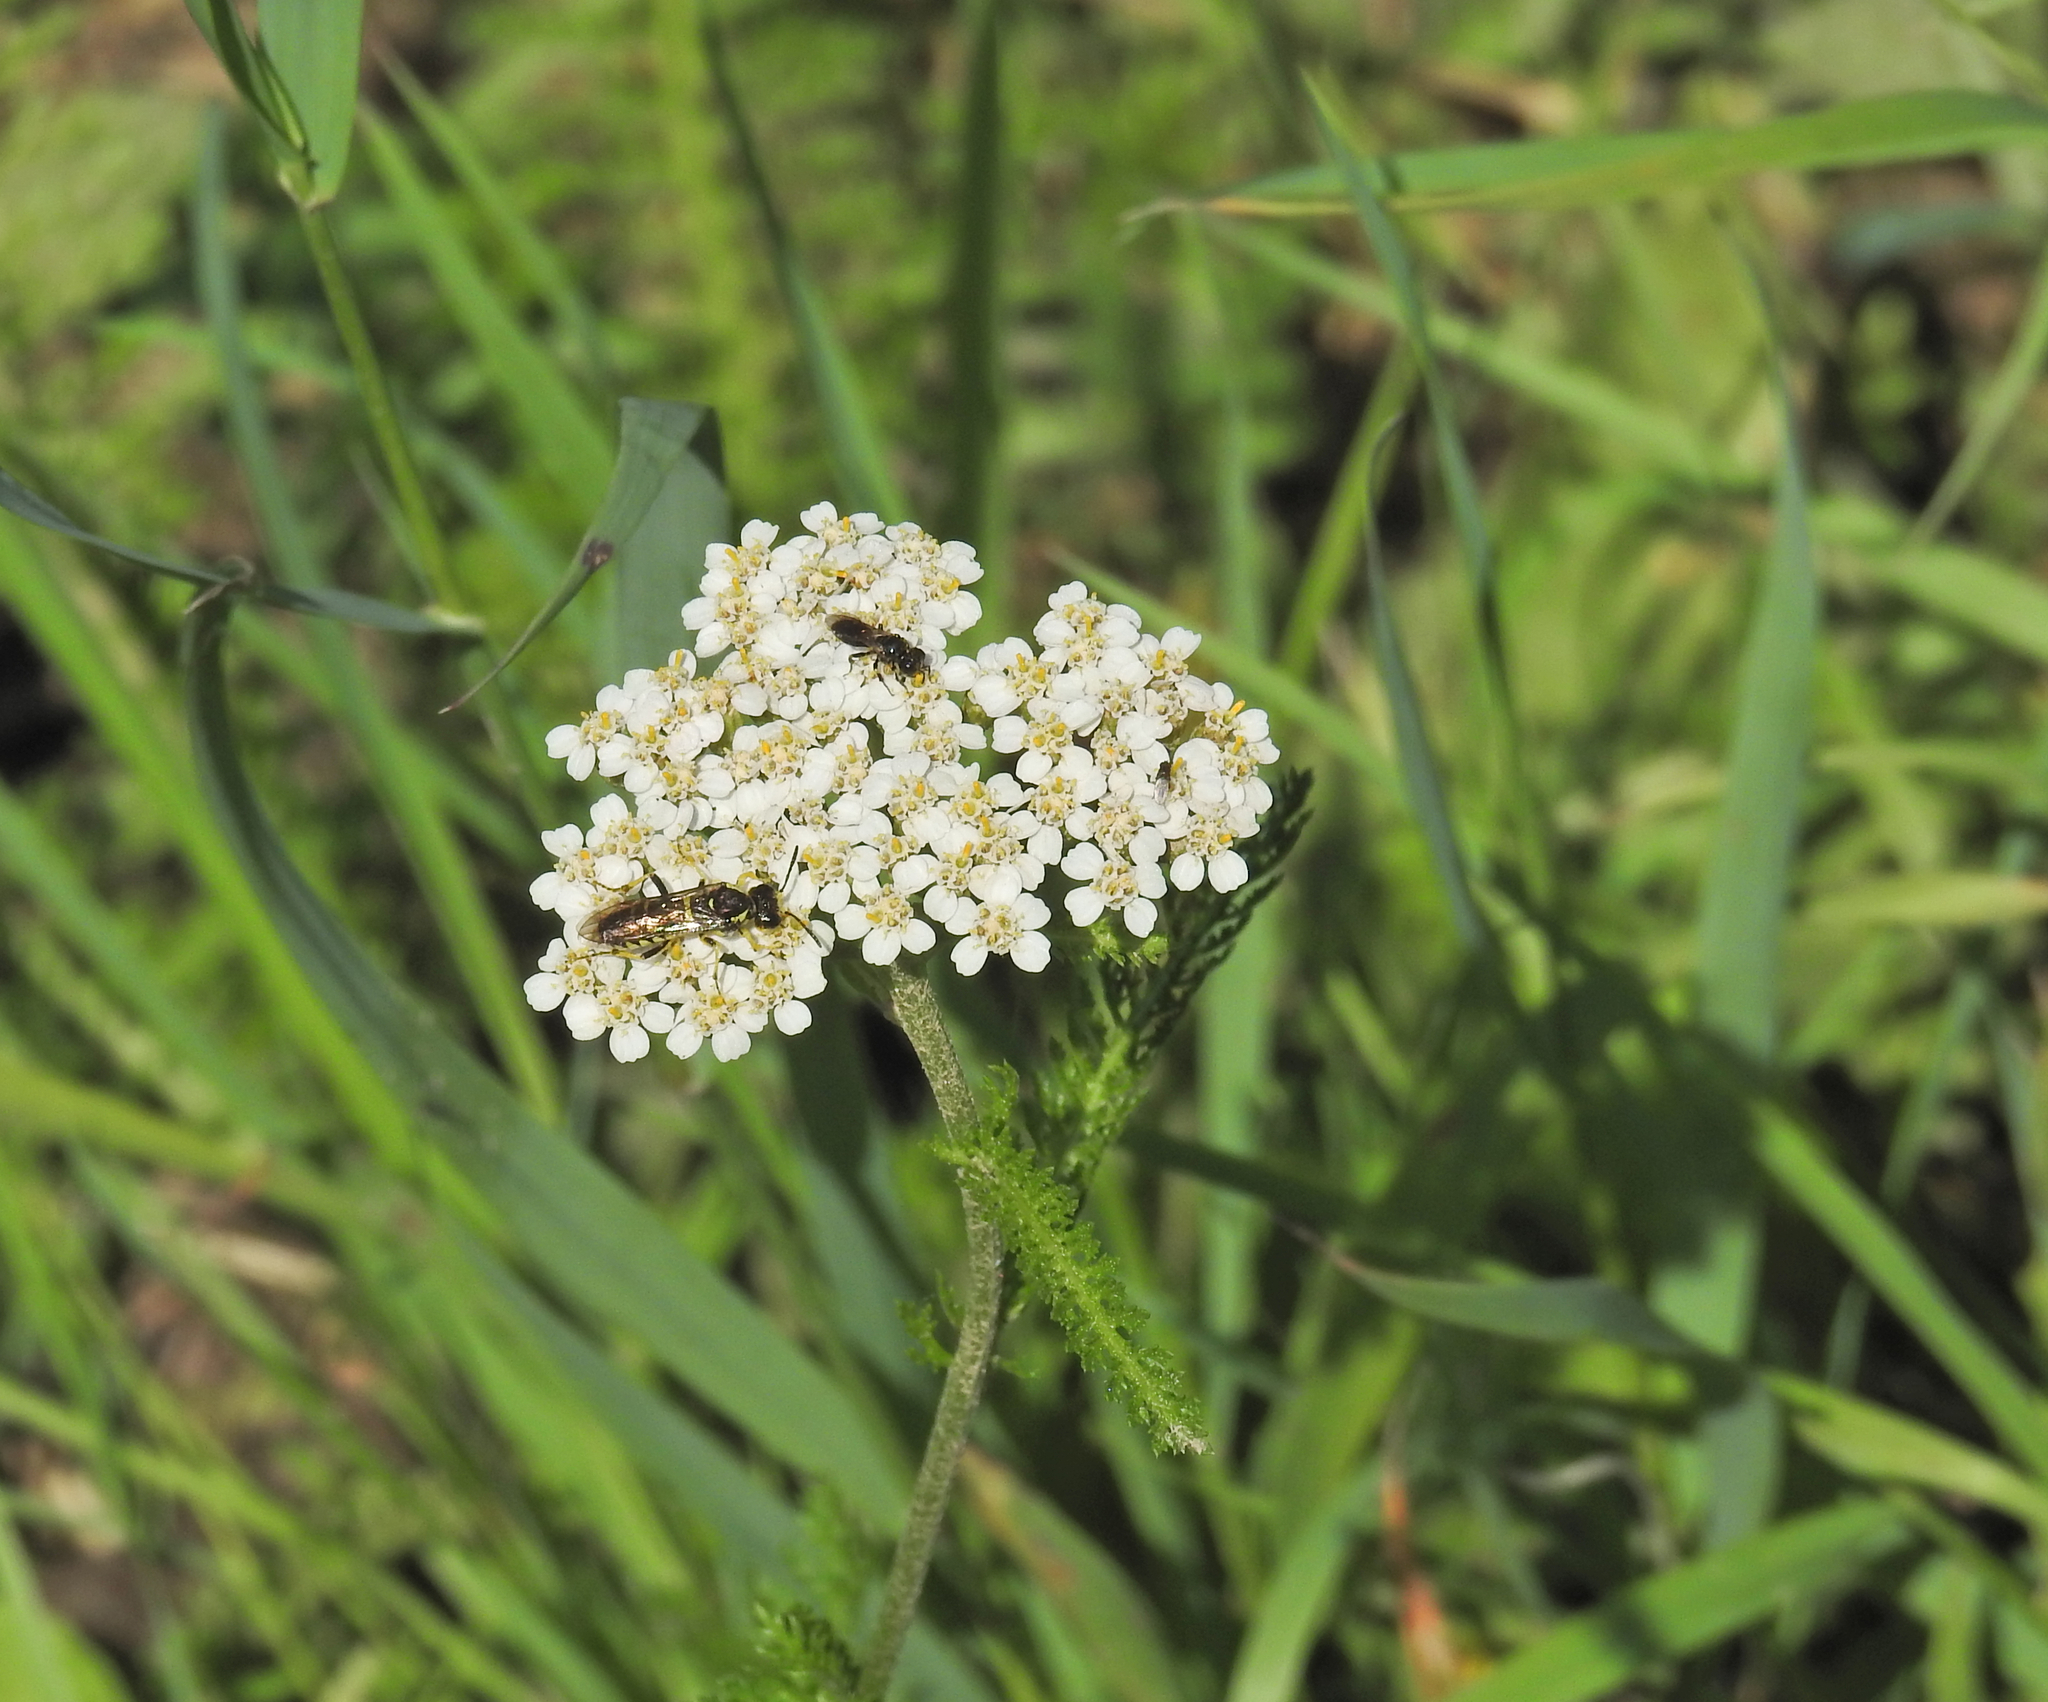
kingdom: Plantae
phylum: Tracheophyta
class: Magnoliopsida
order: Asterales
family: Asteraceae
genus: Achillea
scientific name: Achillea millefolium
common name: Yarrow
